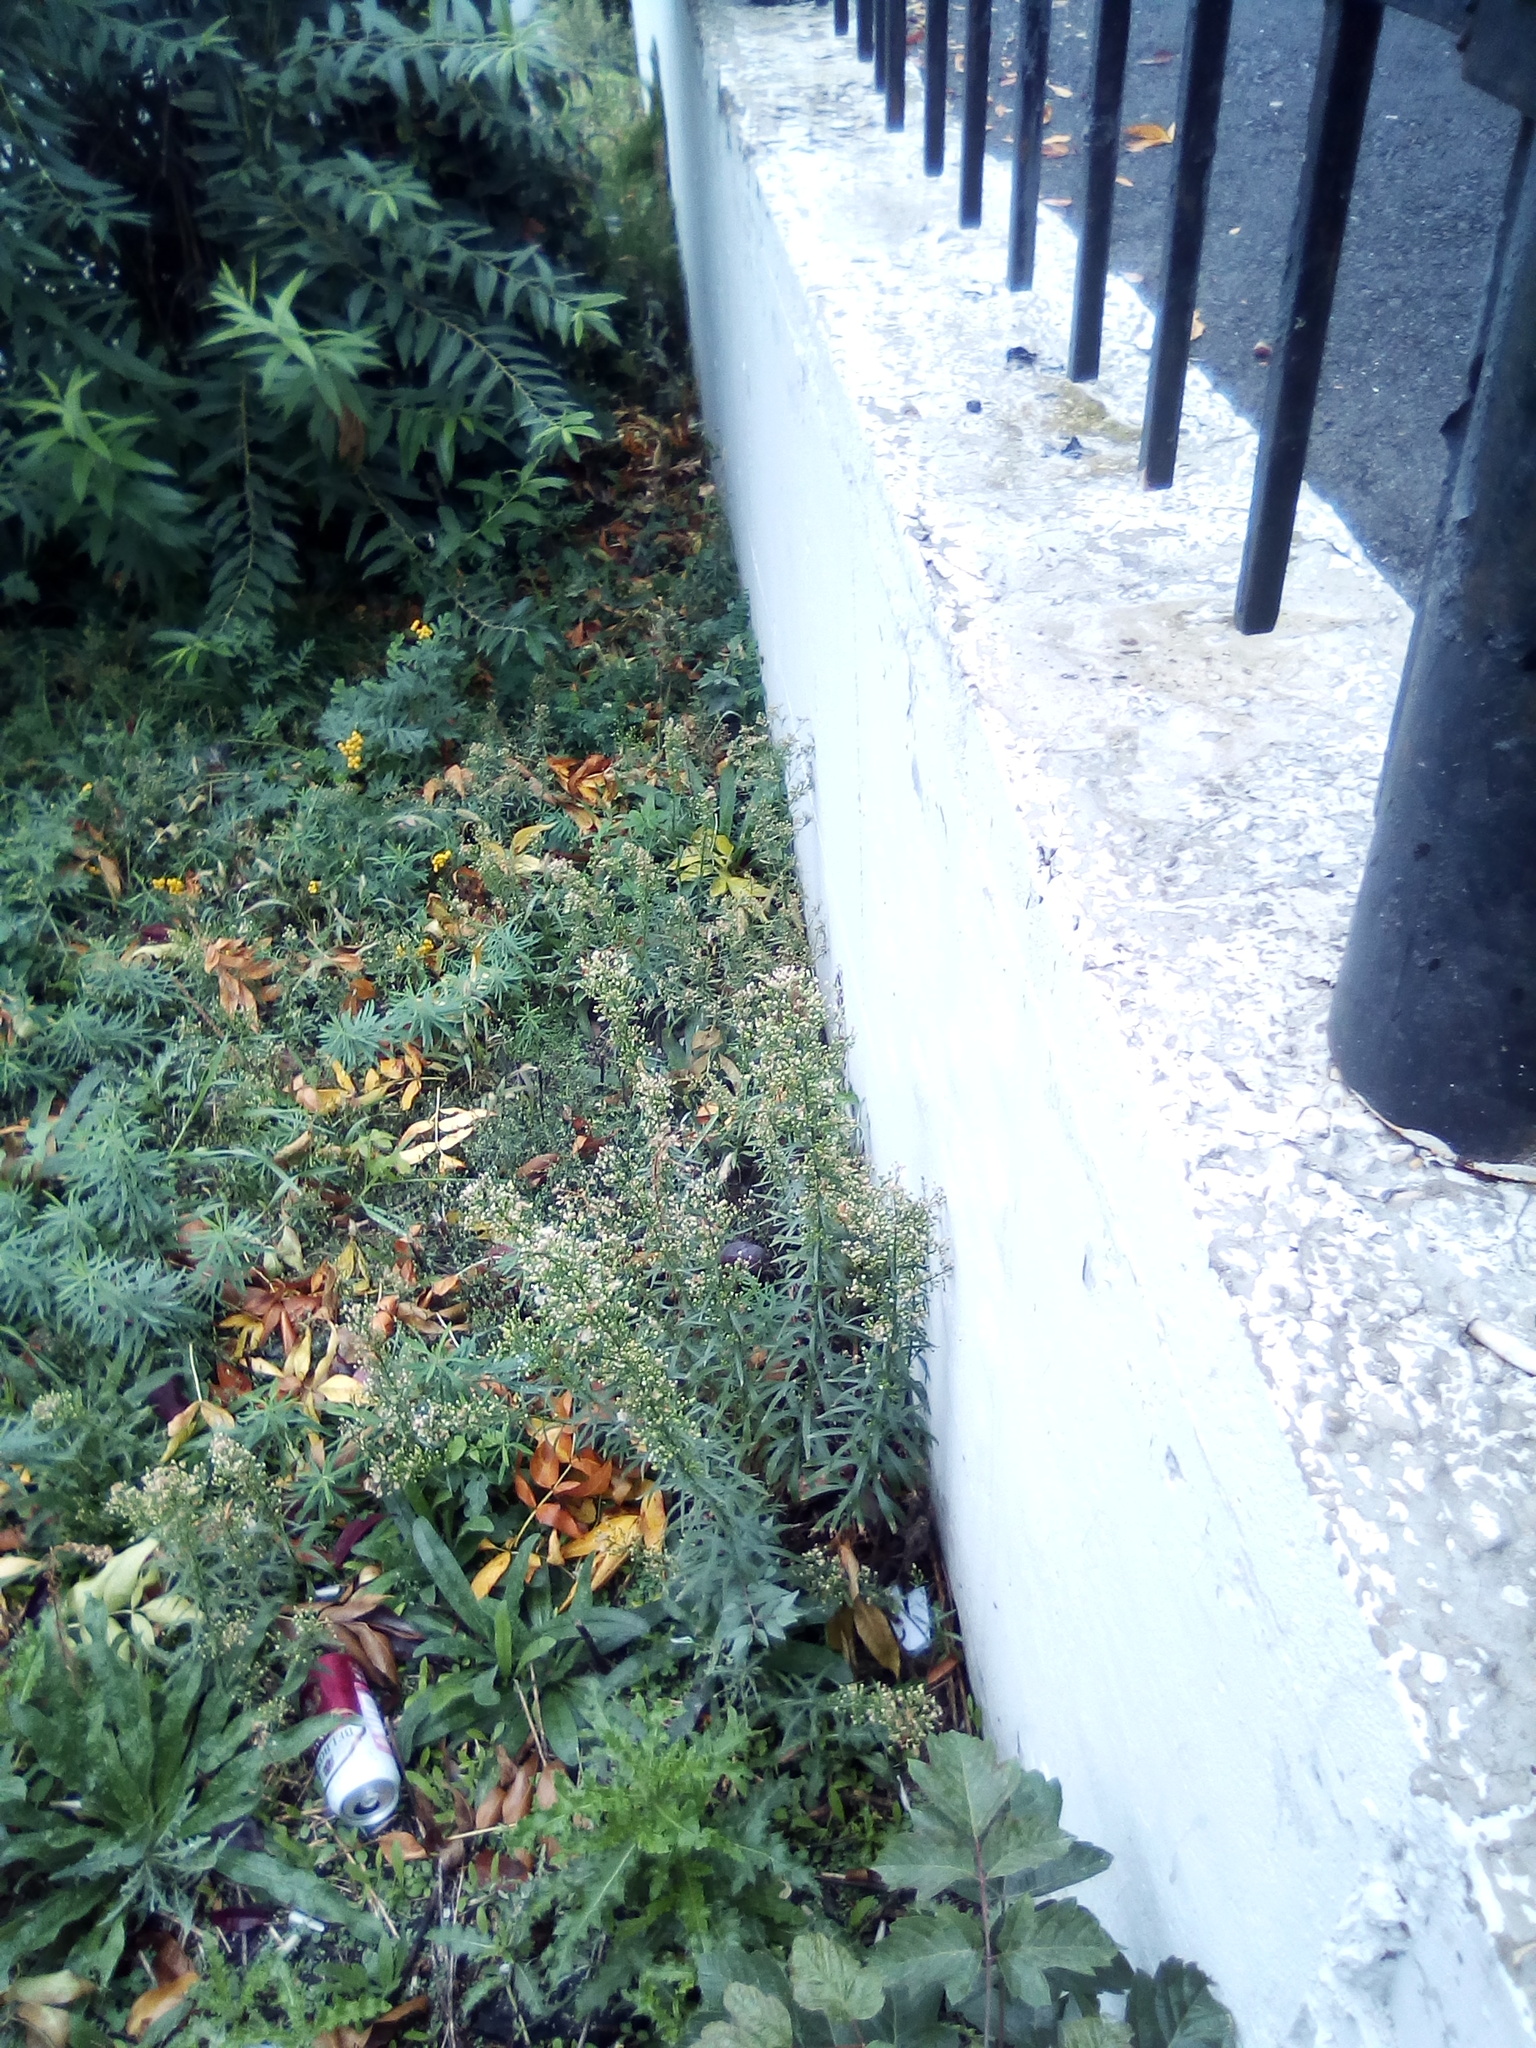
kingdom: Plantae
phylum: Tracheophyta
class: Magnoliopsida
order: Asterales
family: Asteraceae
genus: Erigeron
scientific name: Erigeron canadensis
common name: Canadian fleabane
